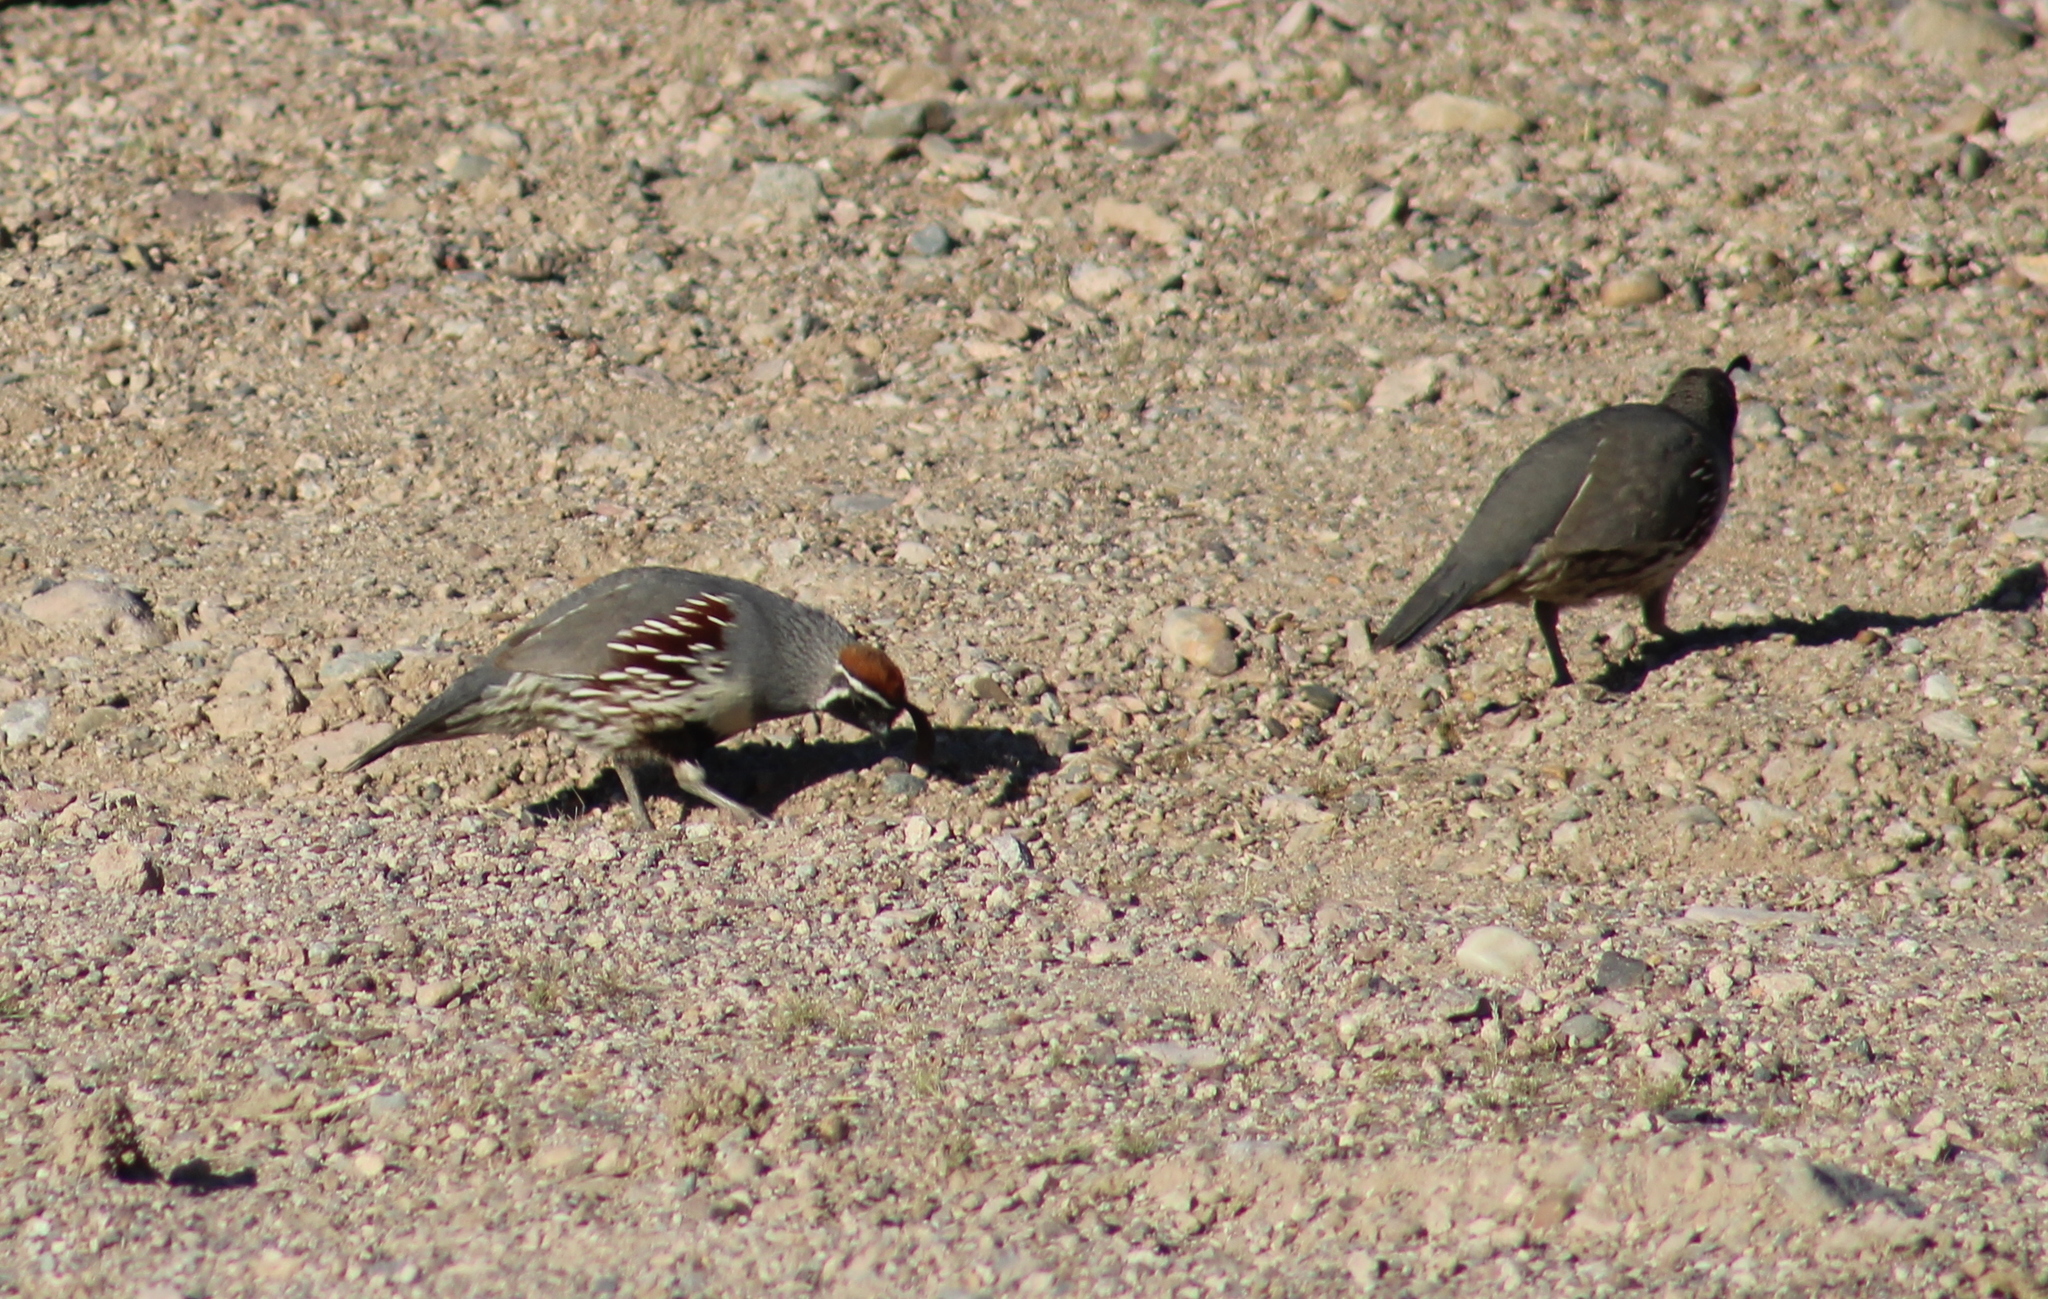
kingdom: Animalia
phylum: Chordata
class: Aves
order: Galliformes
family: Odontophoridae
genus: Callipepla
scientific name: Callipepla gambelii
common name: Gambel's quail
